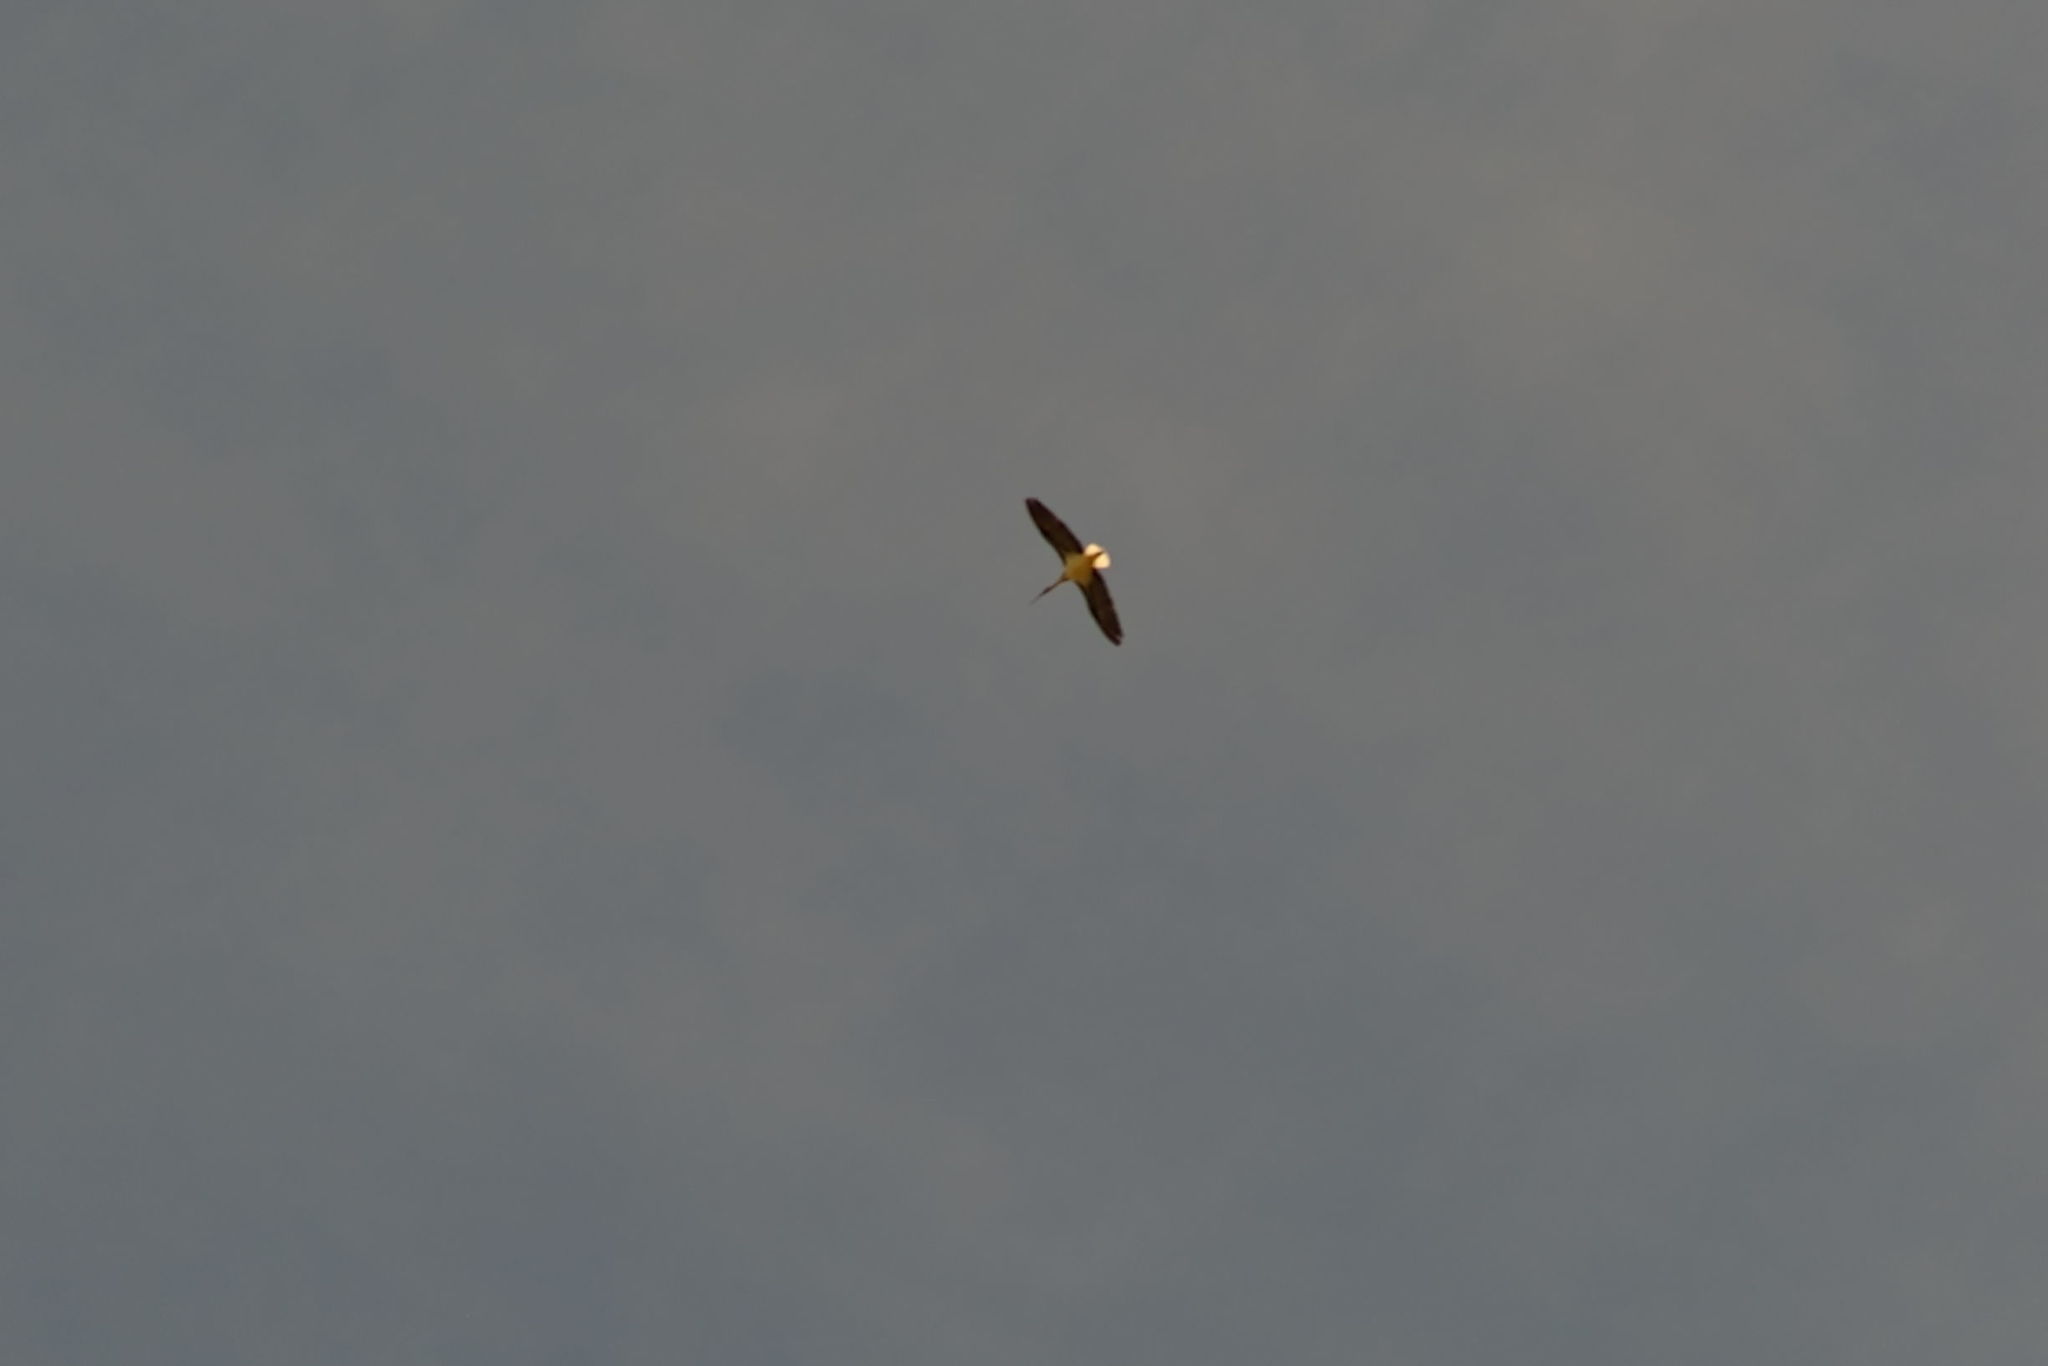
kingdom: Animalia
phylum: Chordata
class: Aves
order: Pelecaniformes
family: Threskiornithidae
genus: Threskiornis
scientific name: Threskiornis spinicollis
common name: Straw-necked ibis
